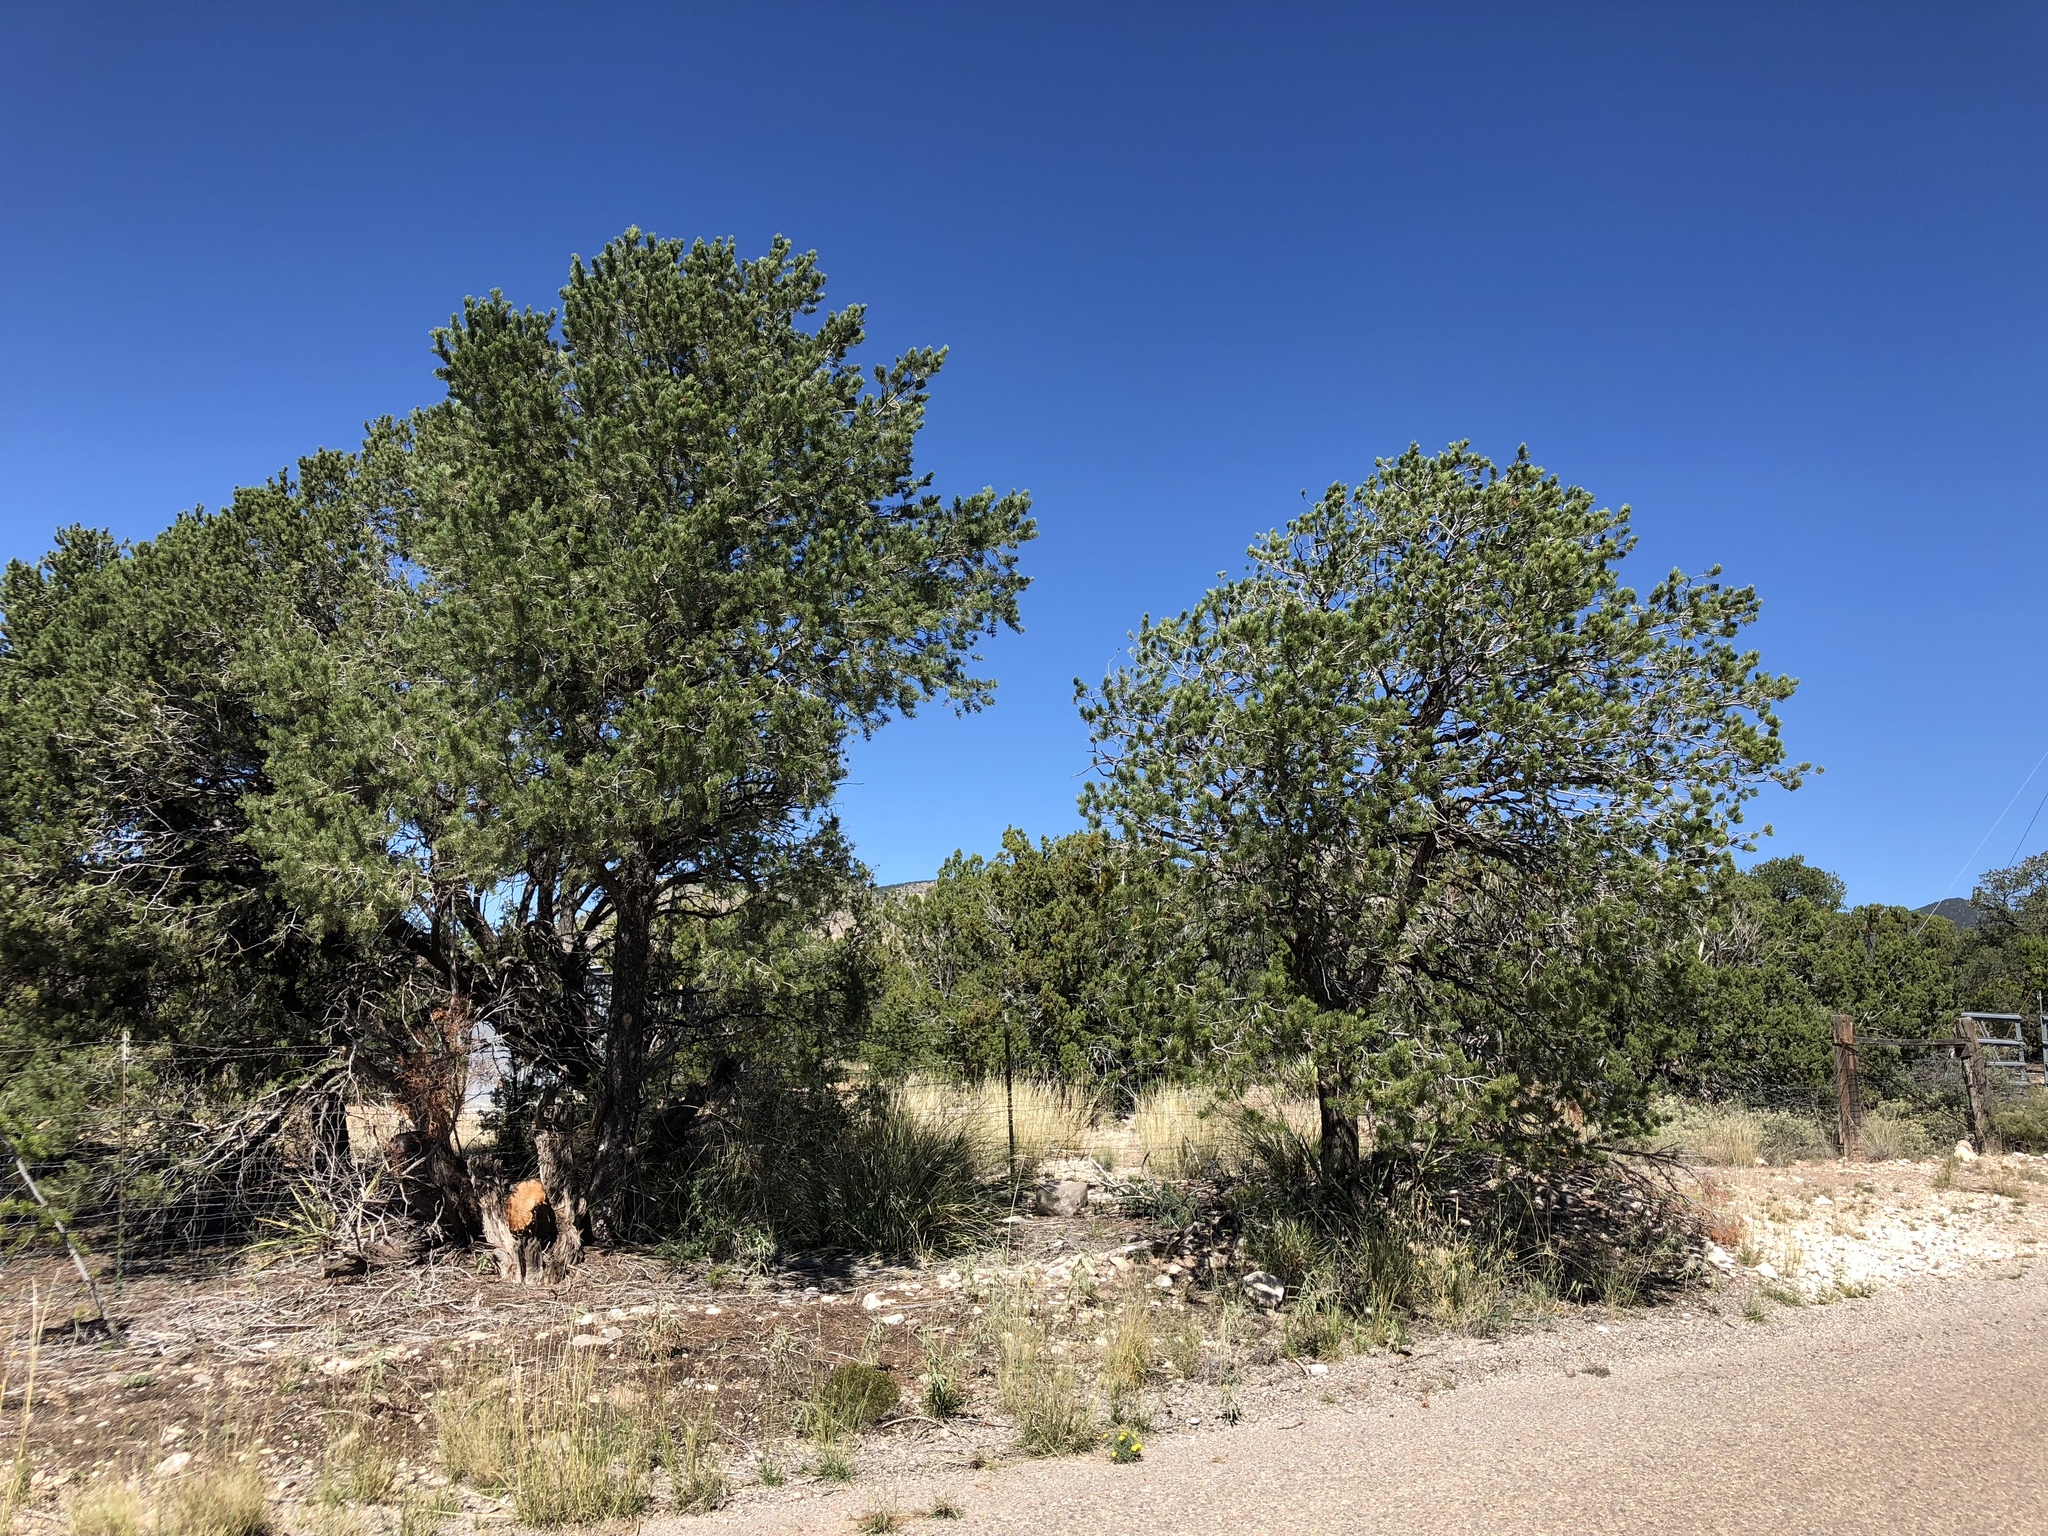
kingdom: Plantae
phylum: Tracheophyta
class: Pinopsida
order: Pinales
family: Pinaceae
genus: Pinus
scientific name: Pinus edulis
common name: Colorado pinyon
